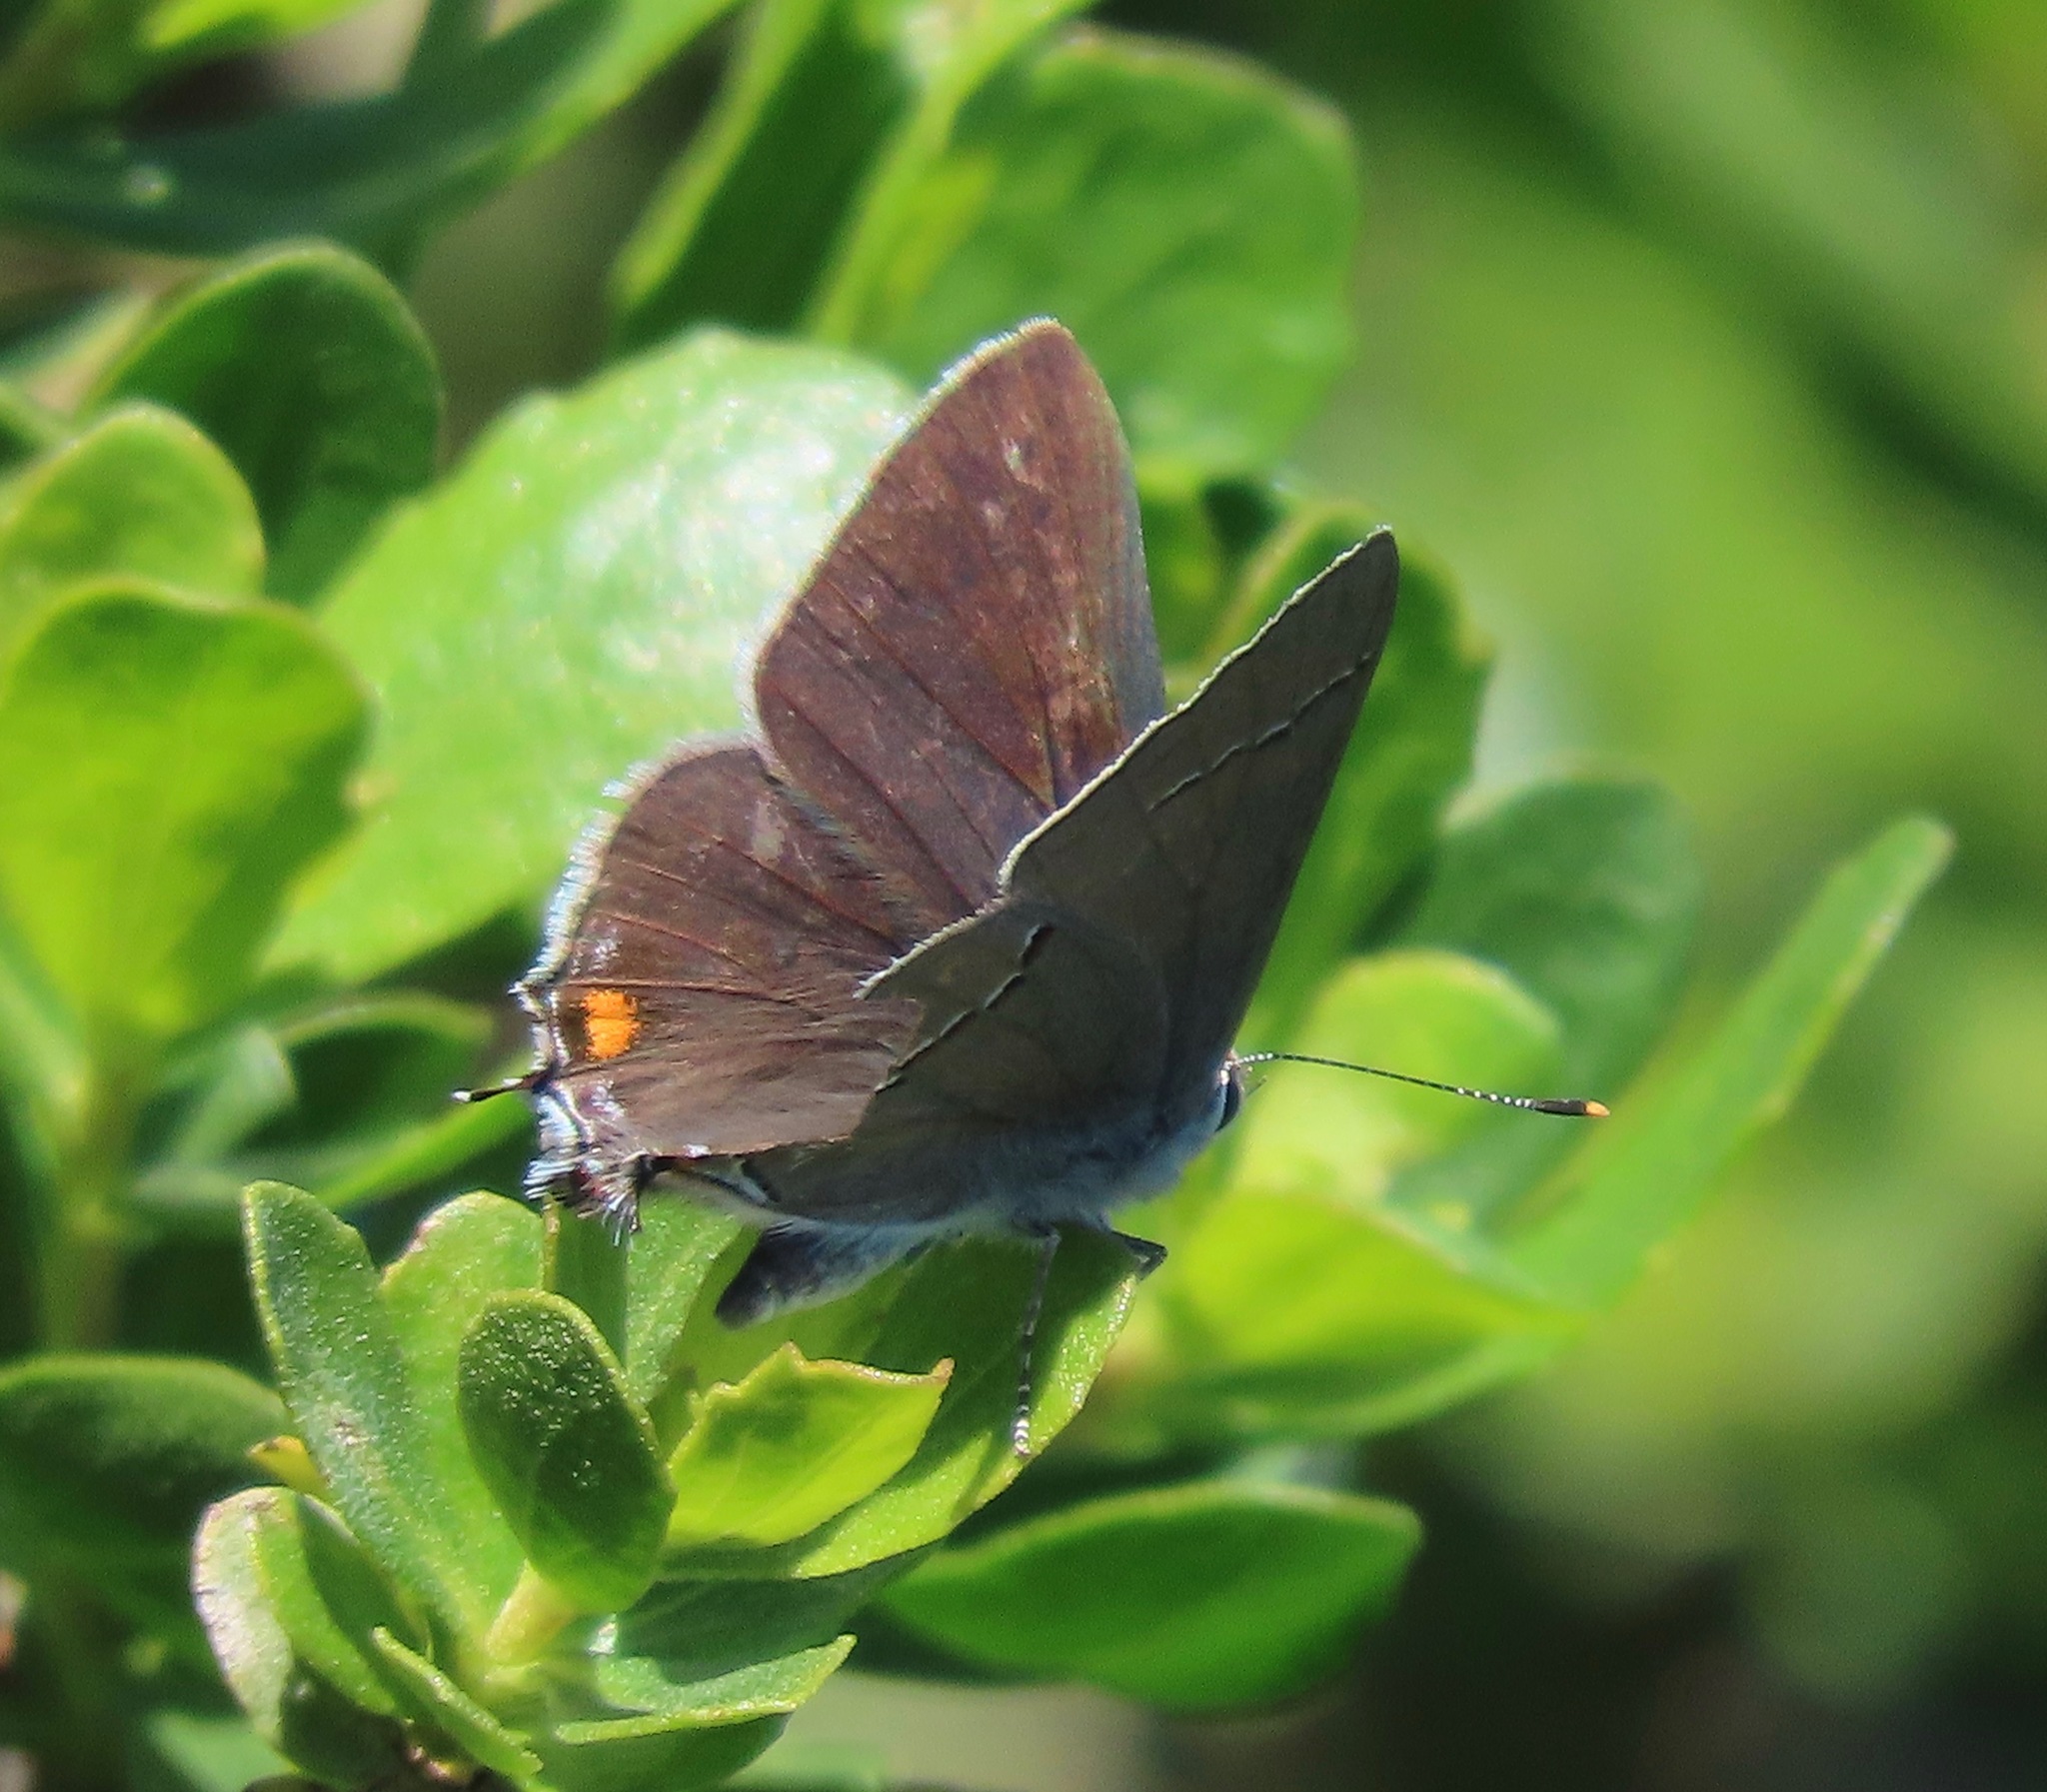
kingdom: Animalia
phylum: Arthropoda
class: Insecta
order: Lepidoptera
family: Lycaenidae
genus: Strymon
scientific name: Strymon melinus
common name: Gray hairstreak
